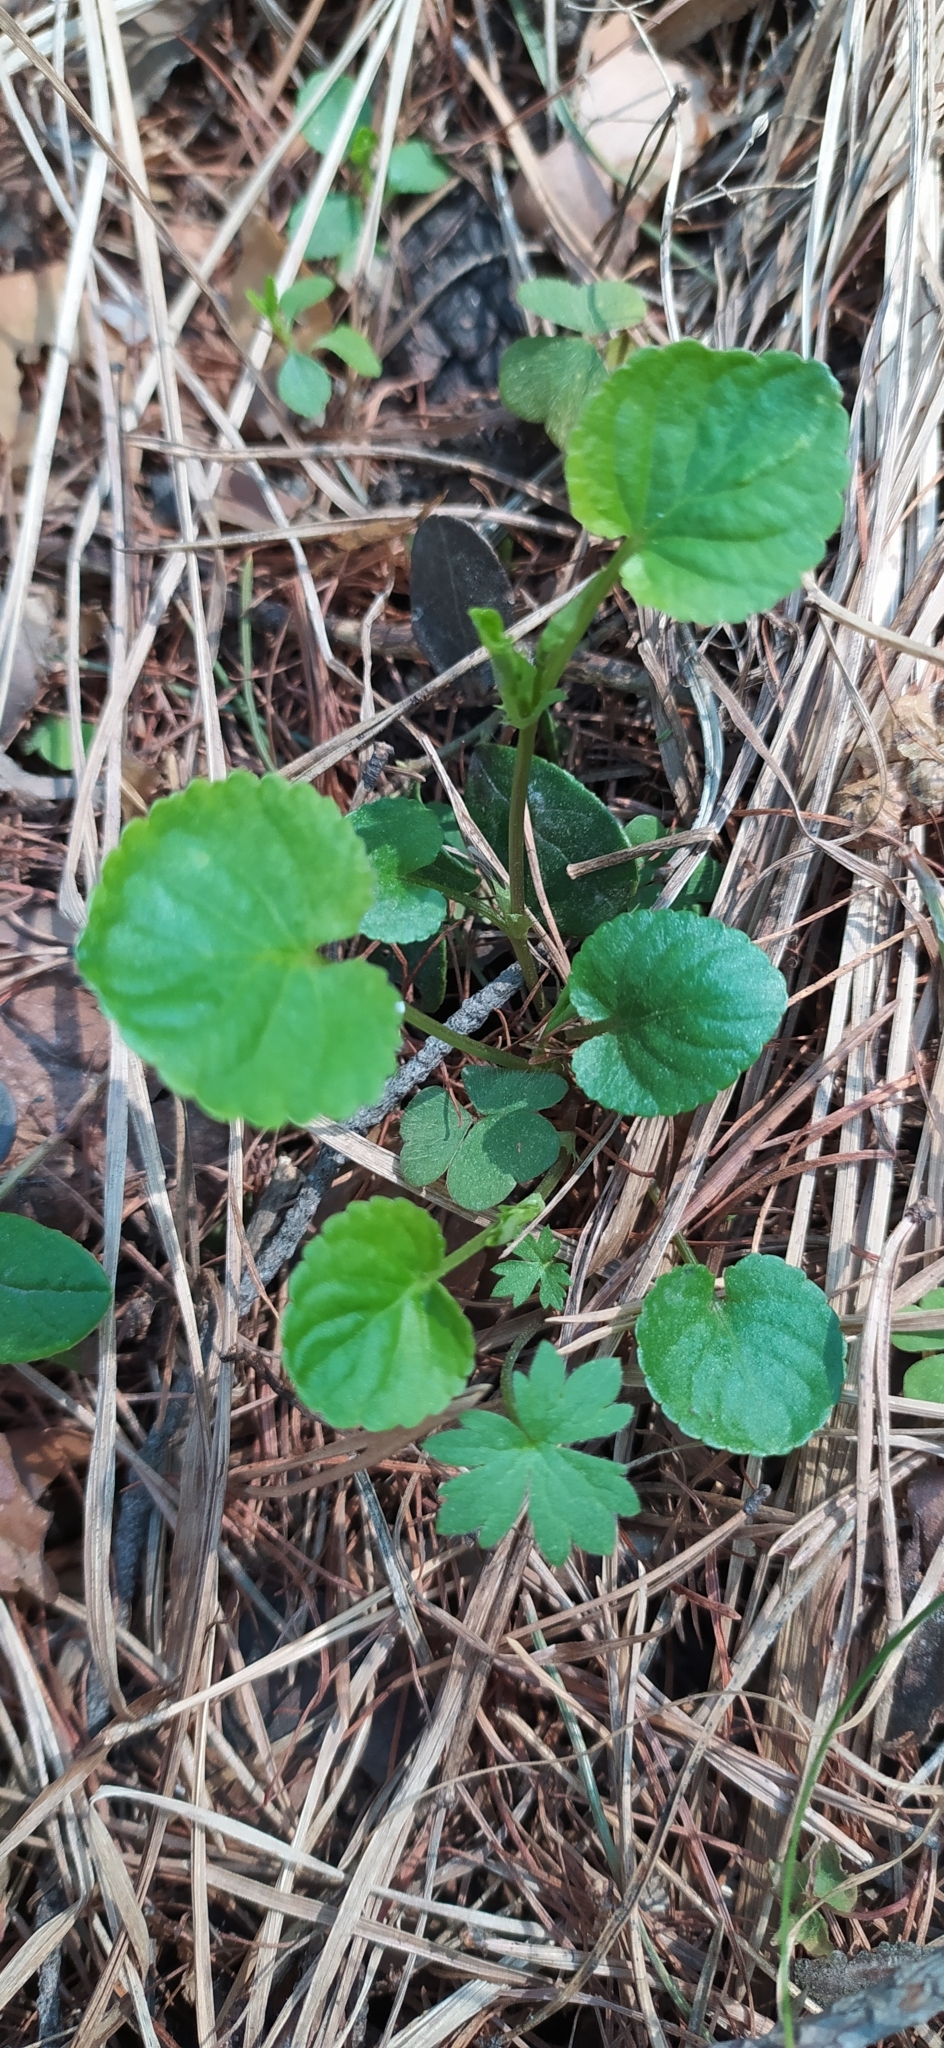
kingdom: Plantae
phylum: Tracheophyta
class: Magnoliopsida
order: Malpighiales
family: Violaceae
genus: Viola
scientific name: Viola mauritii
